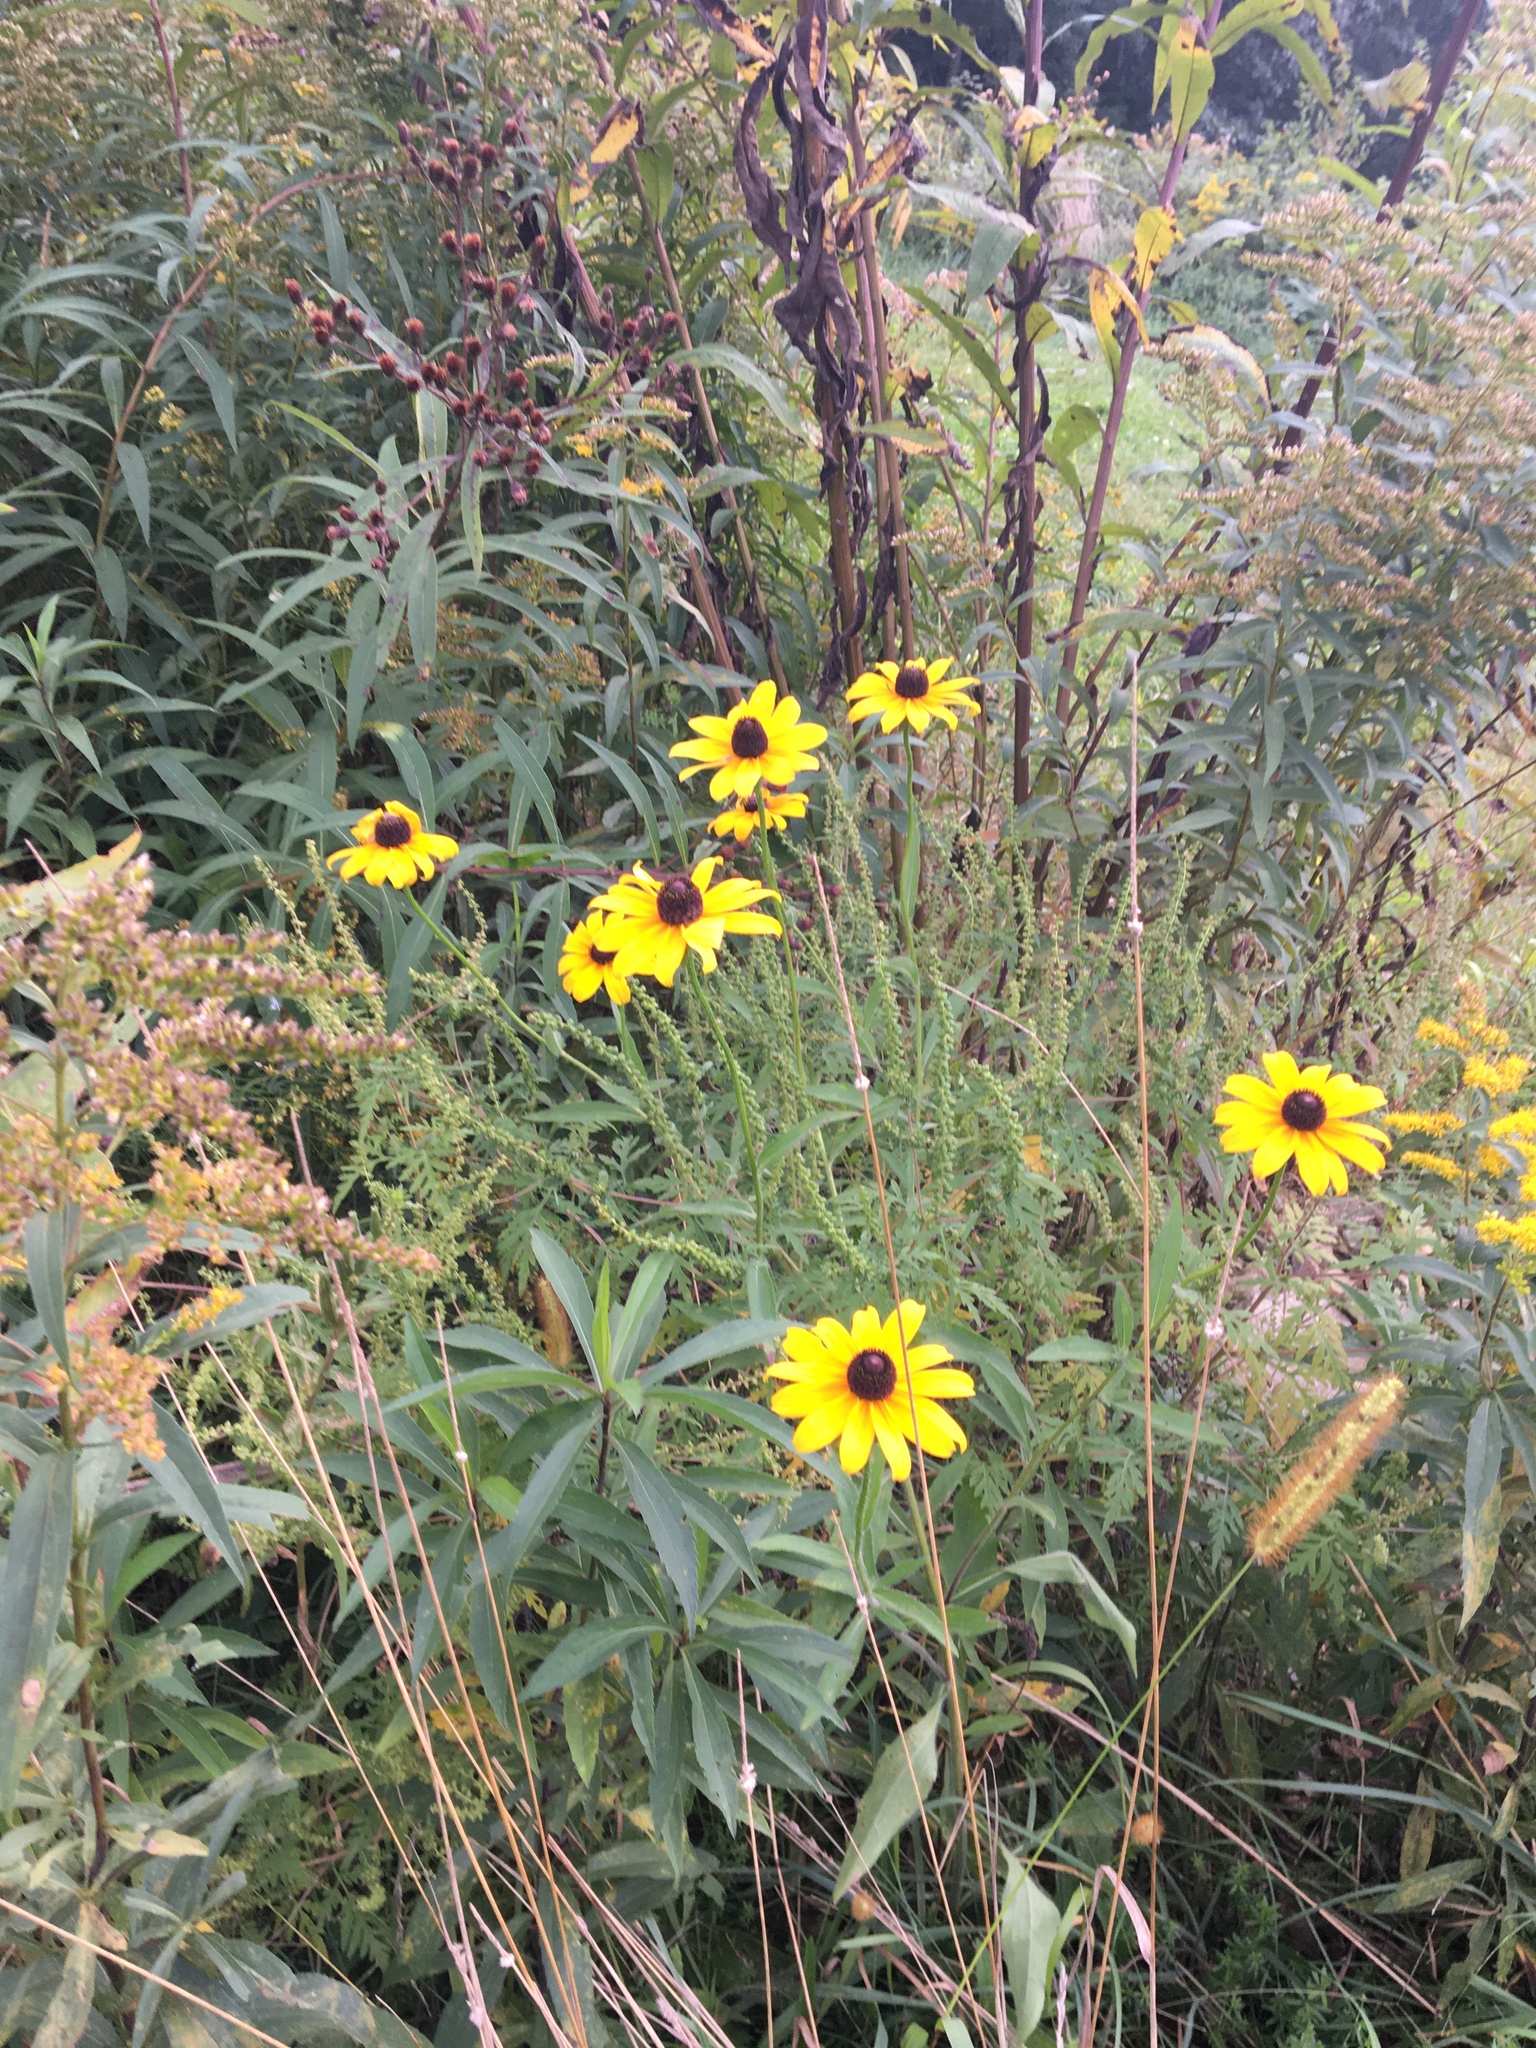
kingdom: Plantae
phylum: Tracheophyta
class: Magnoliopsida
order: Asterales
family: Asteraceae
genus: Rudbeckia
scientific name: Rudbeckia hirta
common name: Black-eyed-susan
